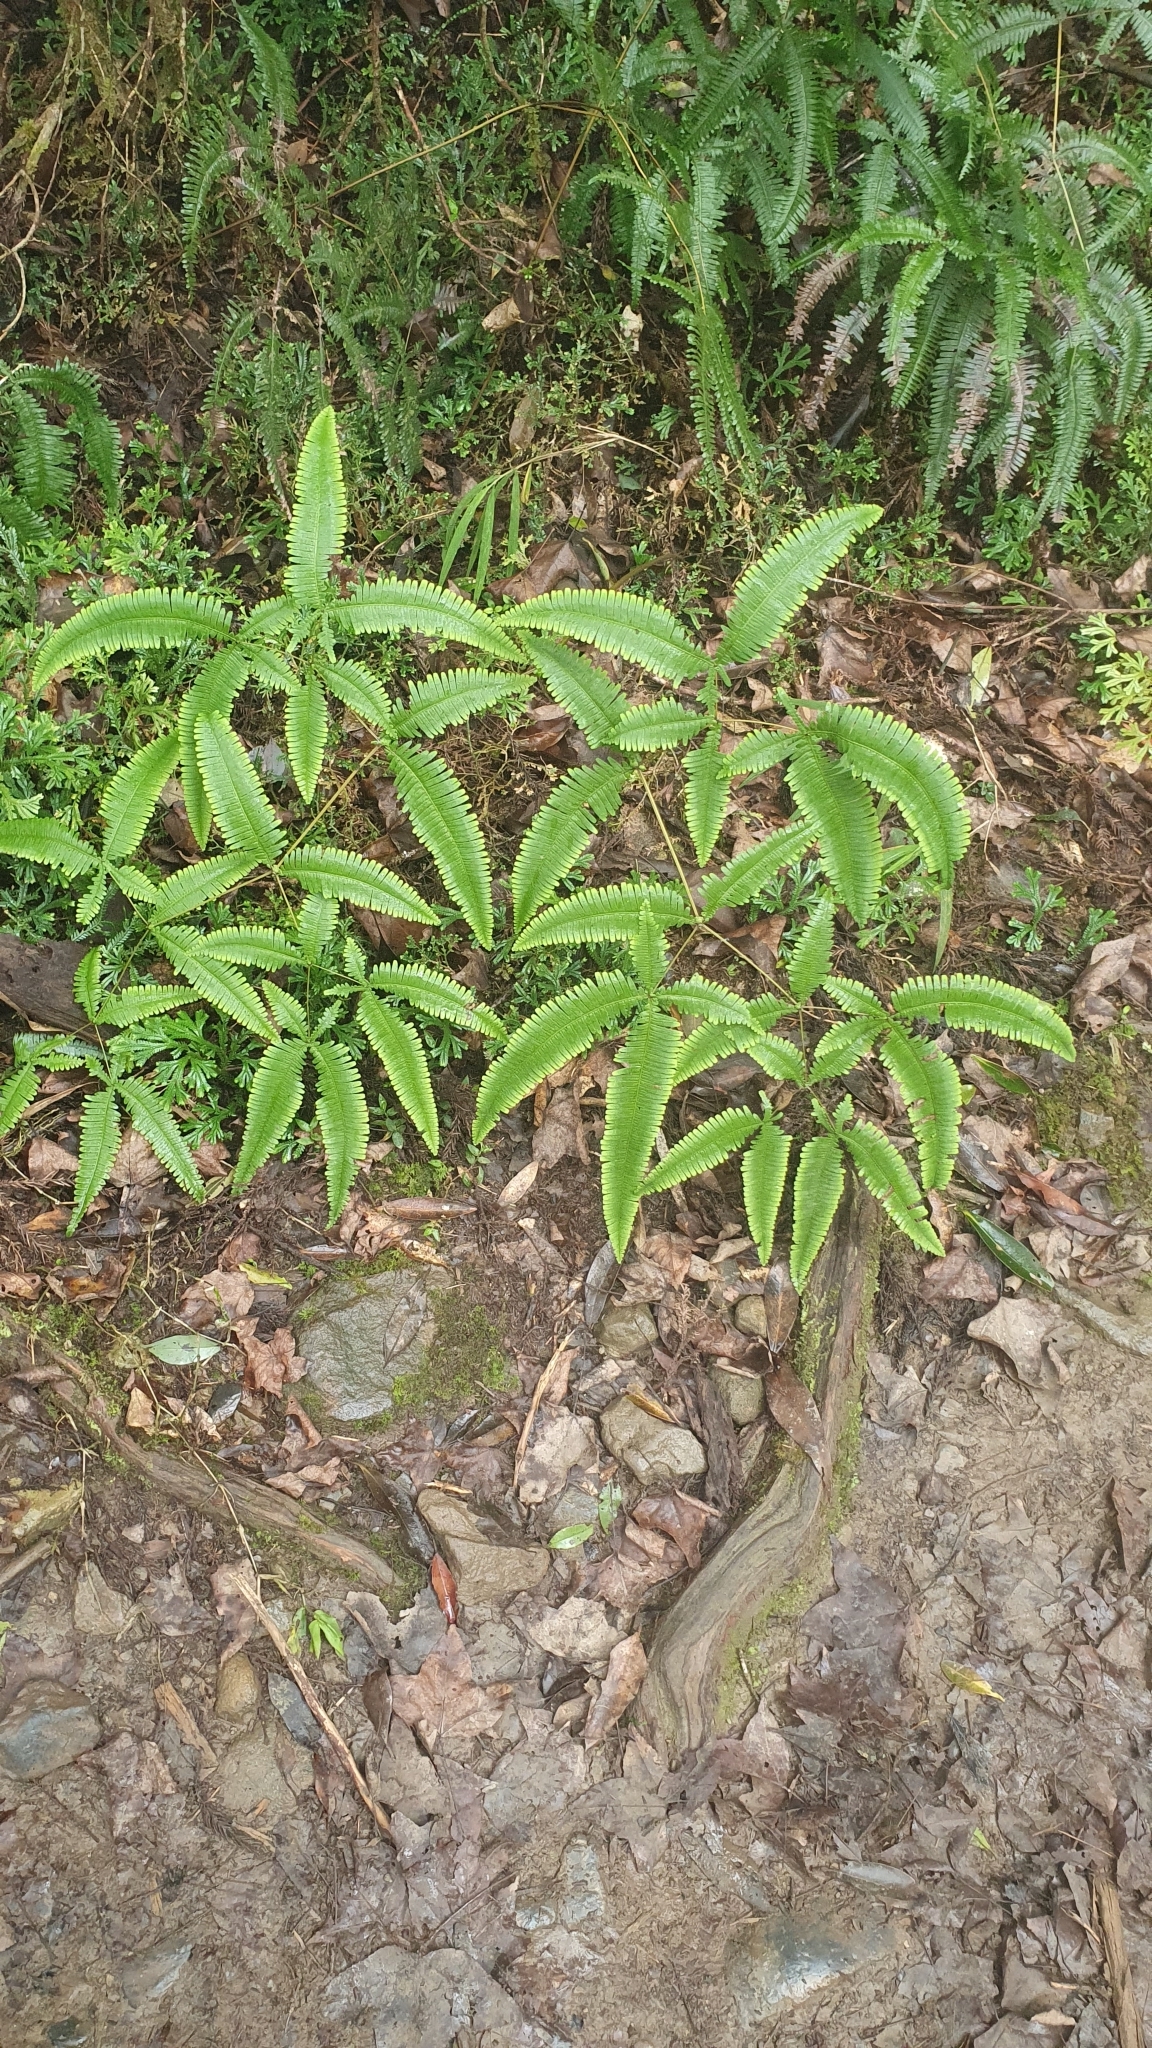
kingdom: Plantae
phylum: Tracheophyta
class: Polypodiopsida
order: Gleicheniales
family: Gleicheniaceae
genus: Dicranopteris
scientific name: Dicranopteris tetraphylla
